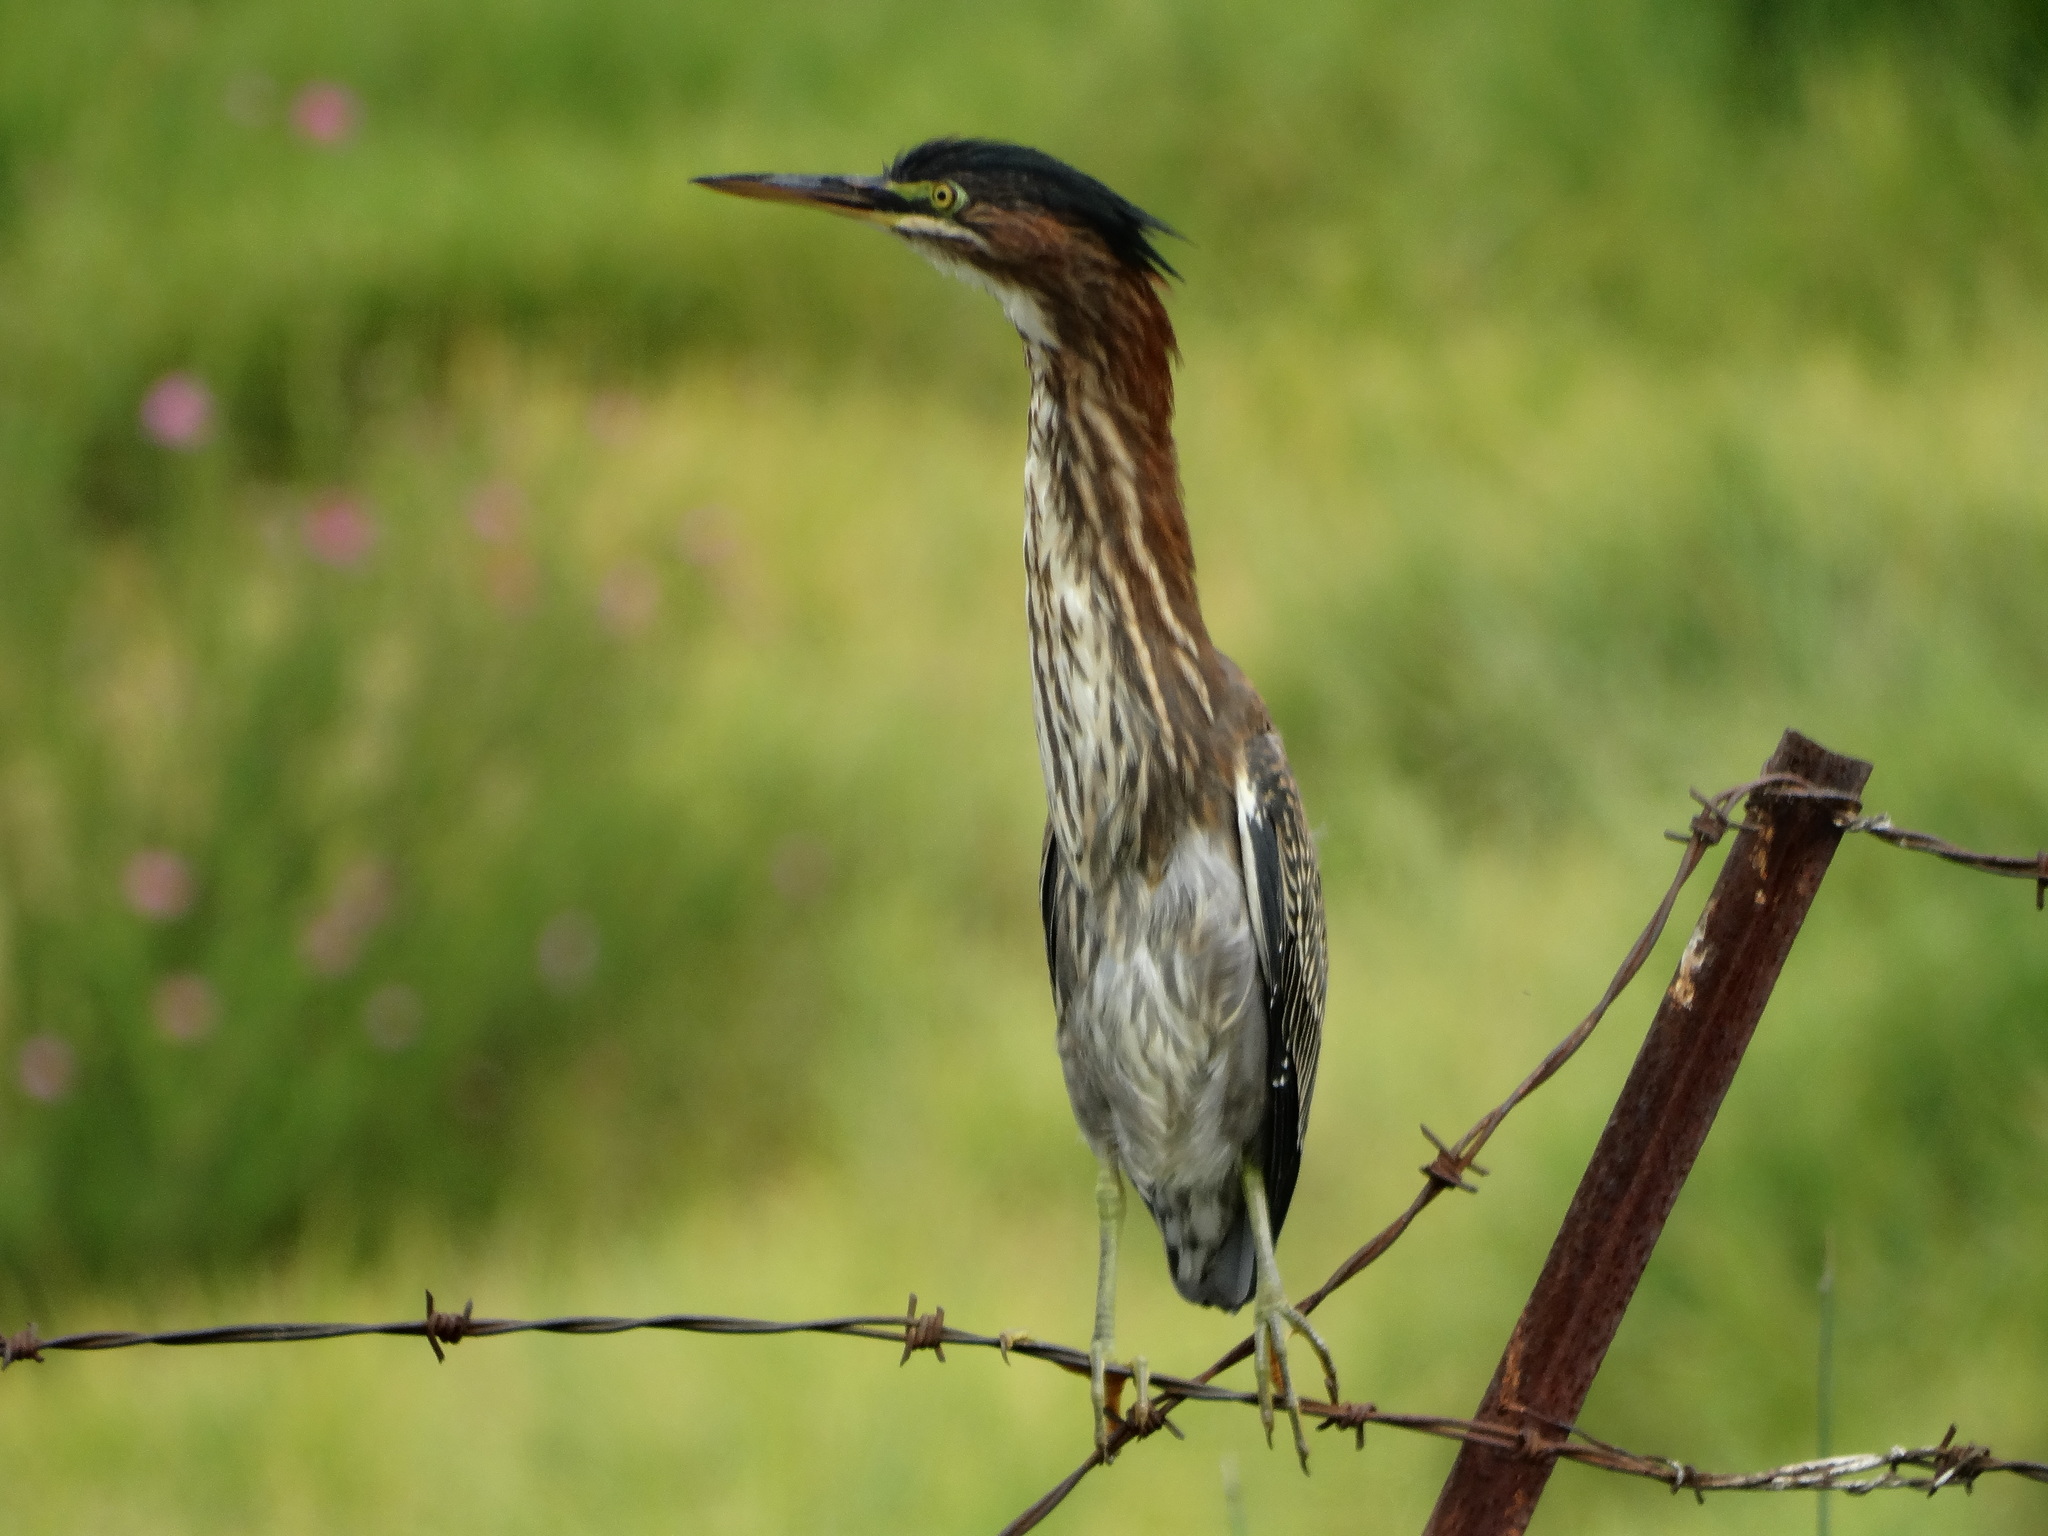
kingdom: Animalia
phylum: Chordata
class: Aves
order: Pelecaniformes
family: Ardeidae
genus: Butorides
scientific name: Butorides virescens
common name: Green heron
